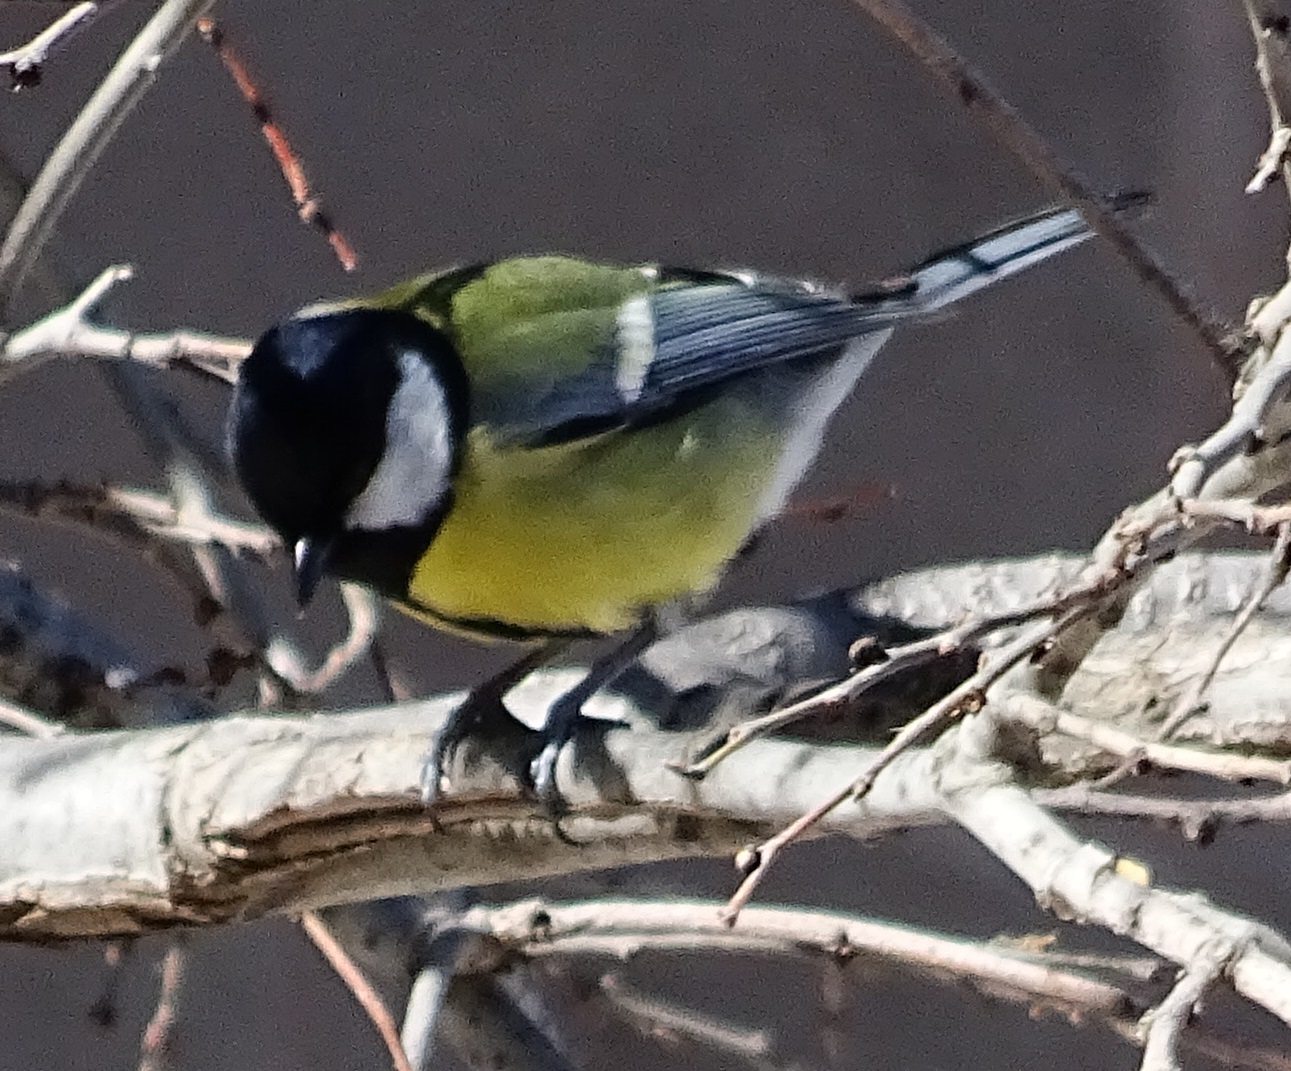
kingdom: Animalia
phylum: Chordata
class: Aves
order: Passeriformes
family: Paridae
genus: Parus
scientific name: Parus major
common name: Great tit
